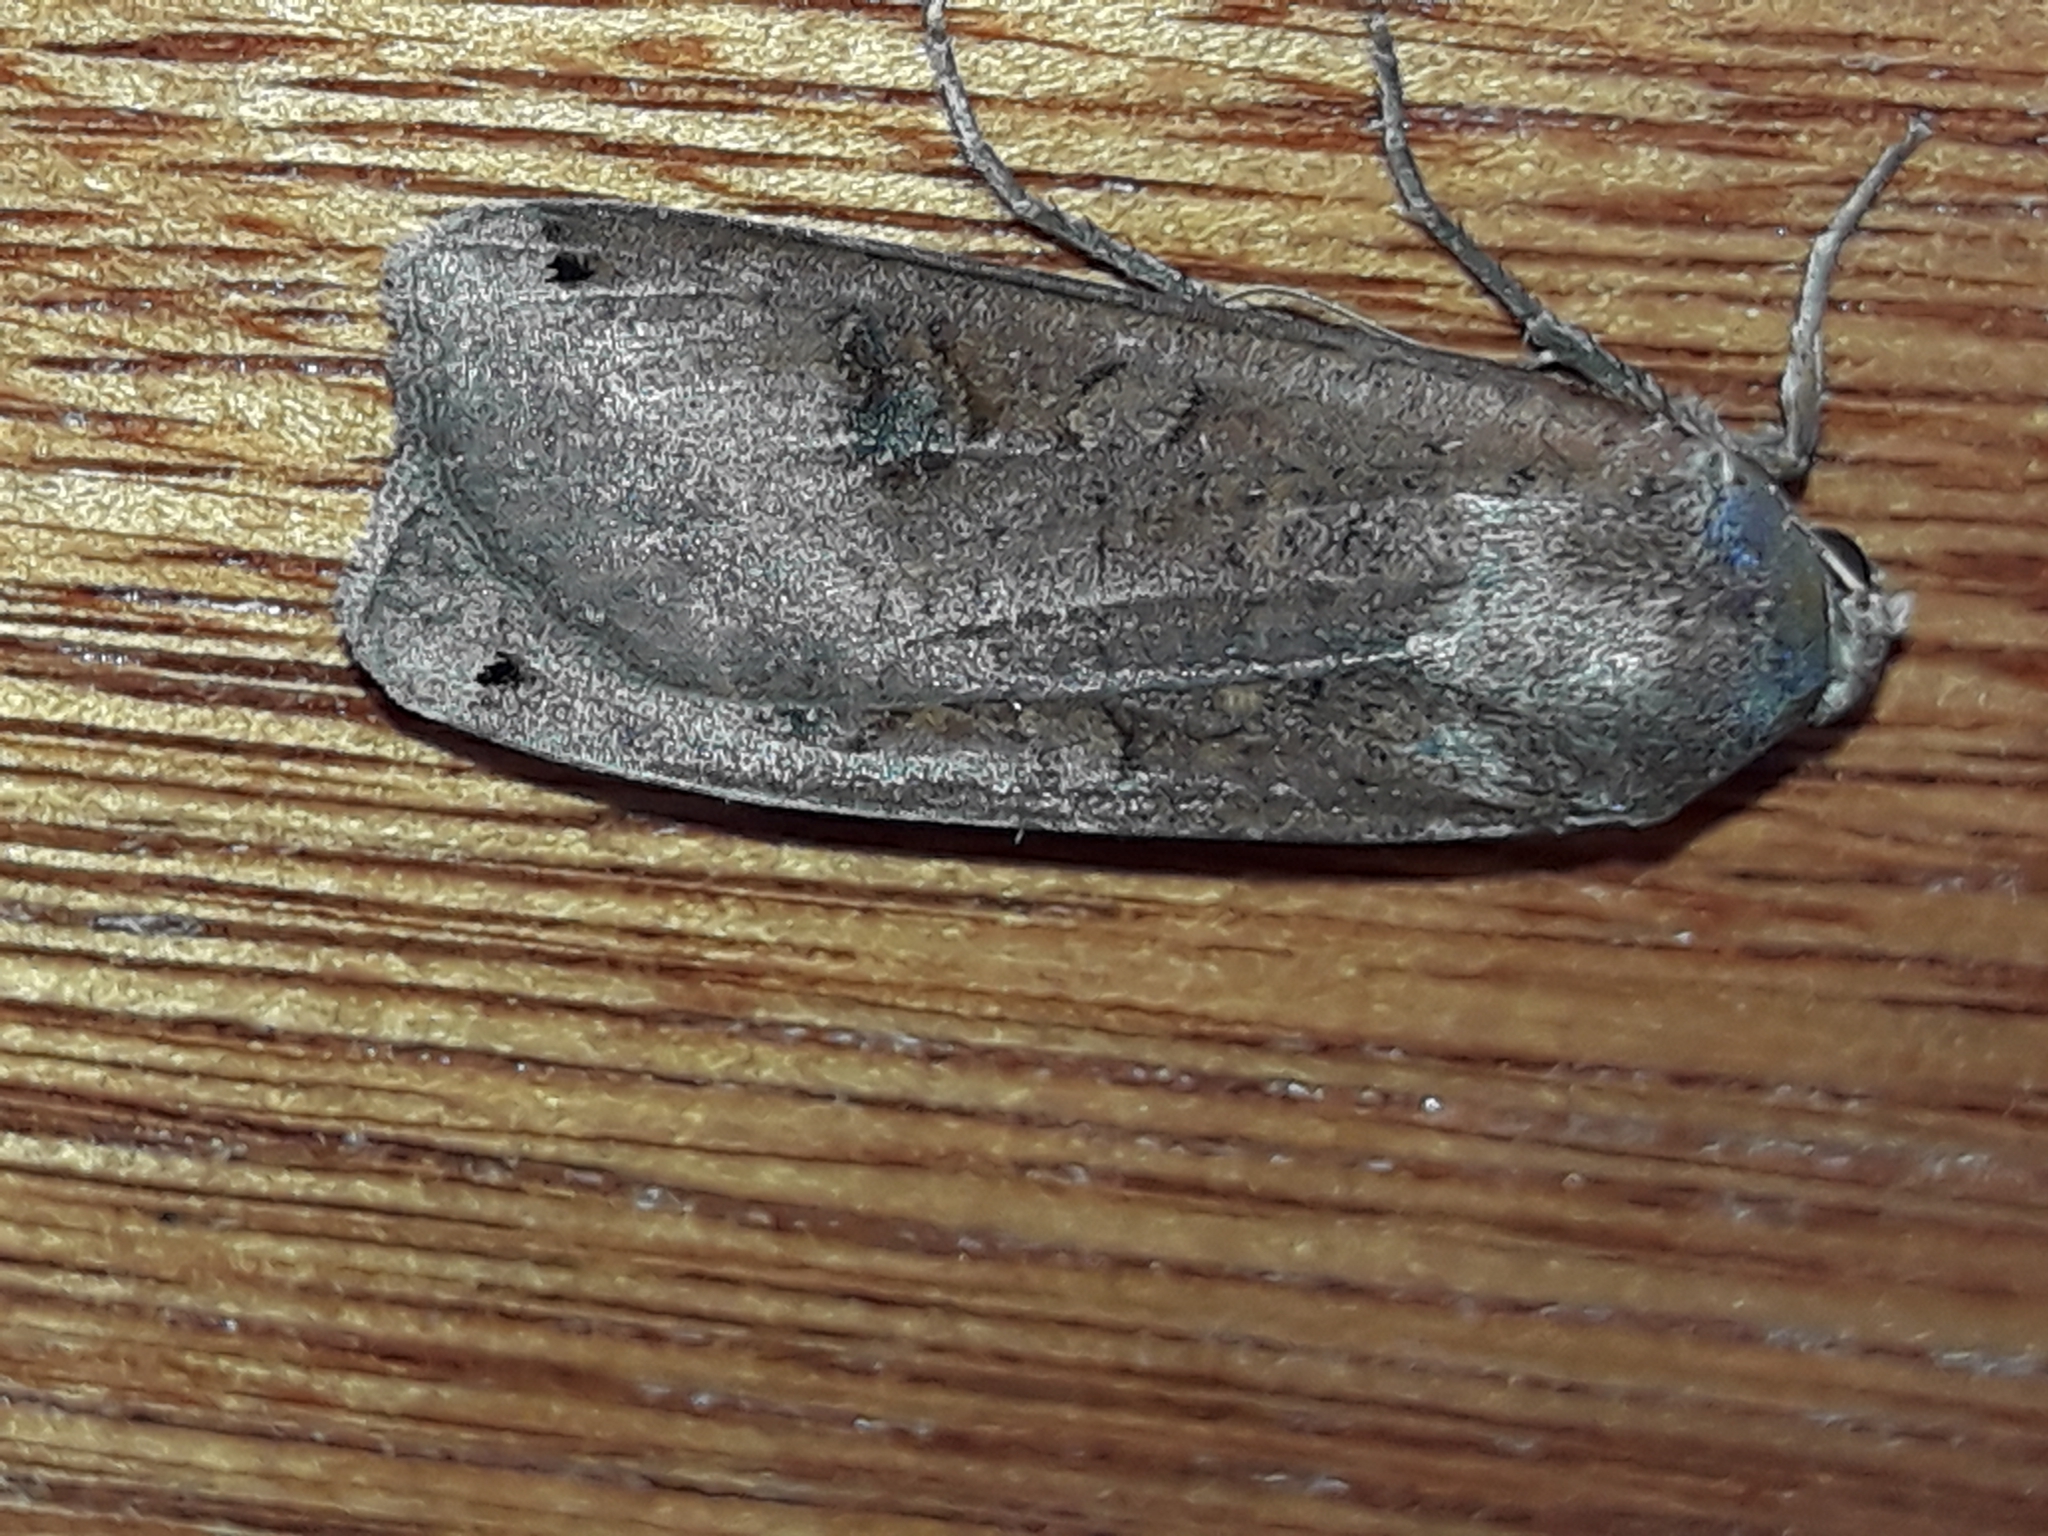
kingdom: Animalia
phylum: Arthropoda
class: Insecta
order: Lepidoptera
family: Noctuidae
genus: Noctua
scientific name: Noctua pronuba
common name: Large yellow underwing
